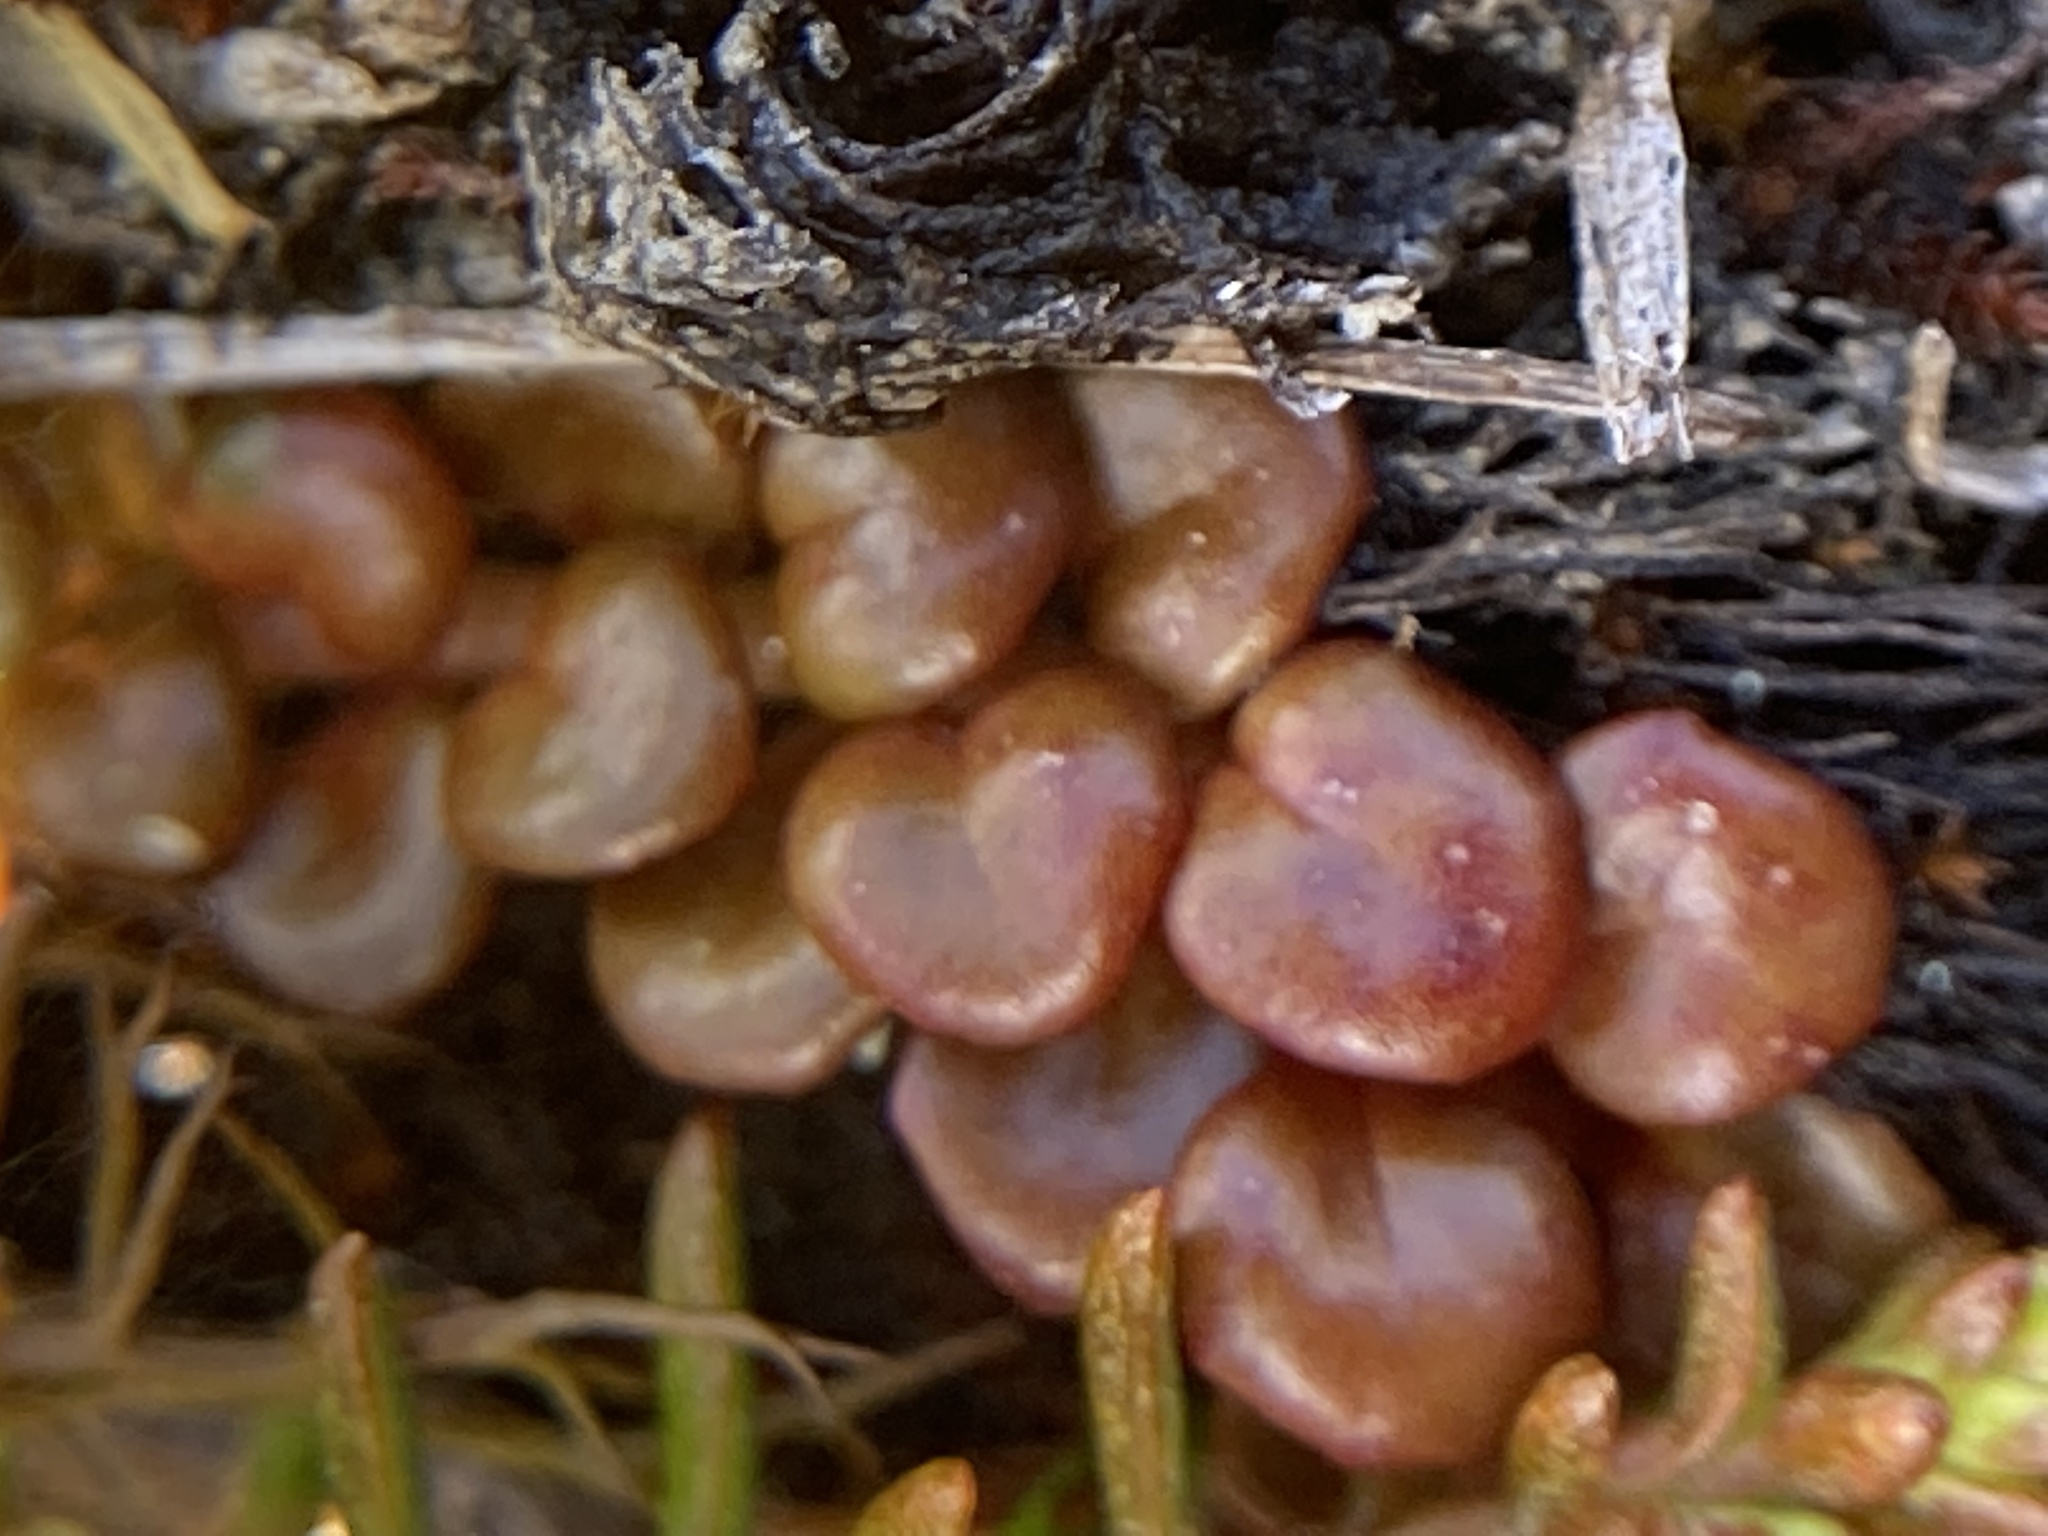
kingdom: Plantae
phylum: Tracheophyta
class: Magnoliopsida
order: Myrtales
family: Onagraceae
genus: Epilobium
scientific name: Epilobium pernitens
